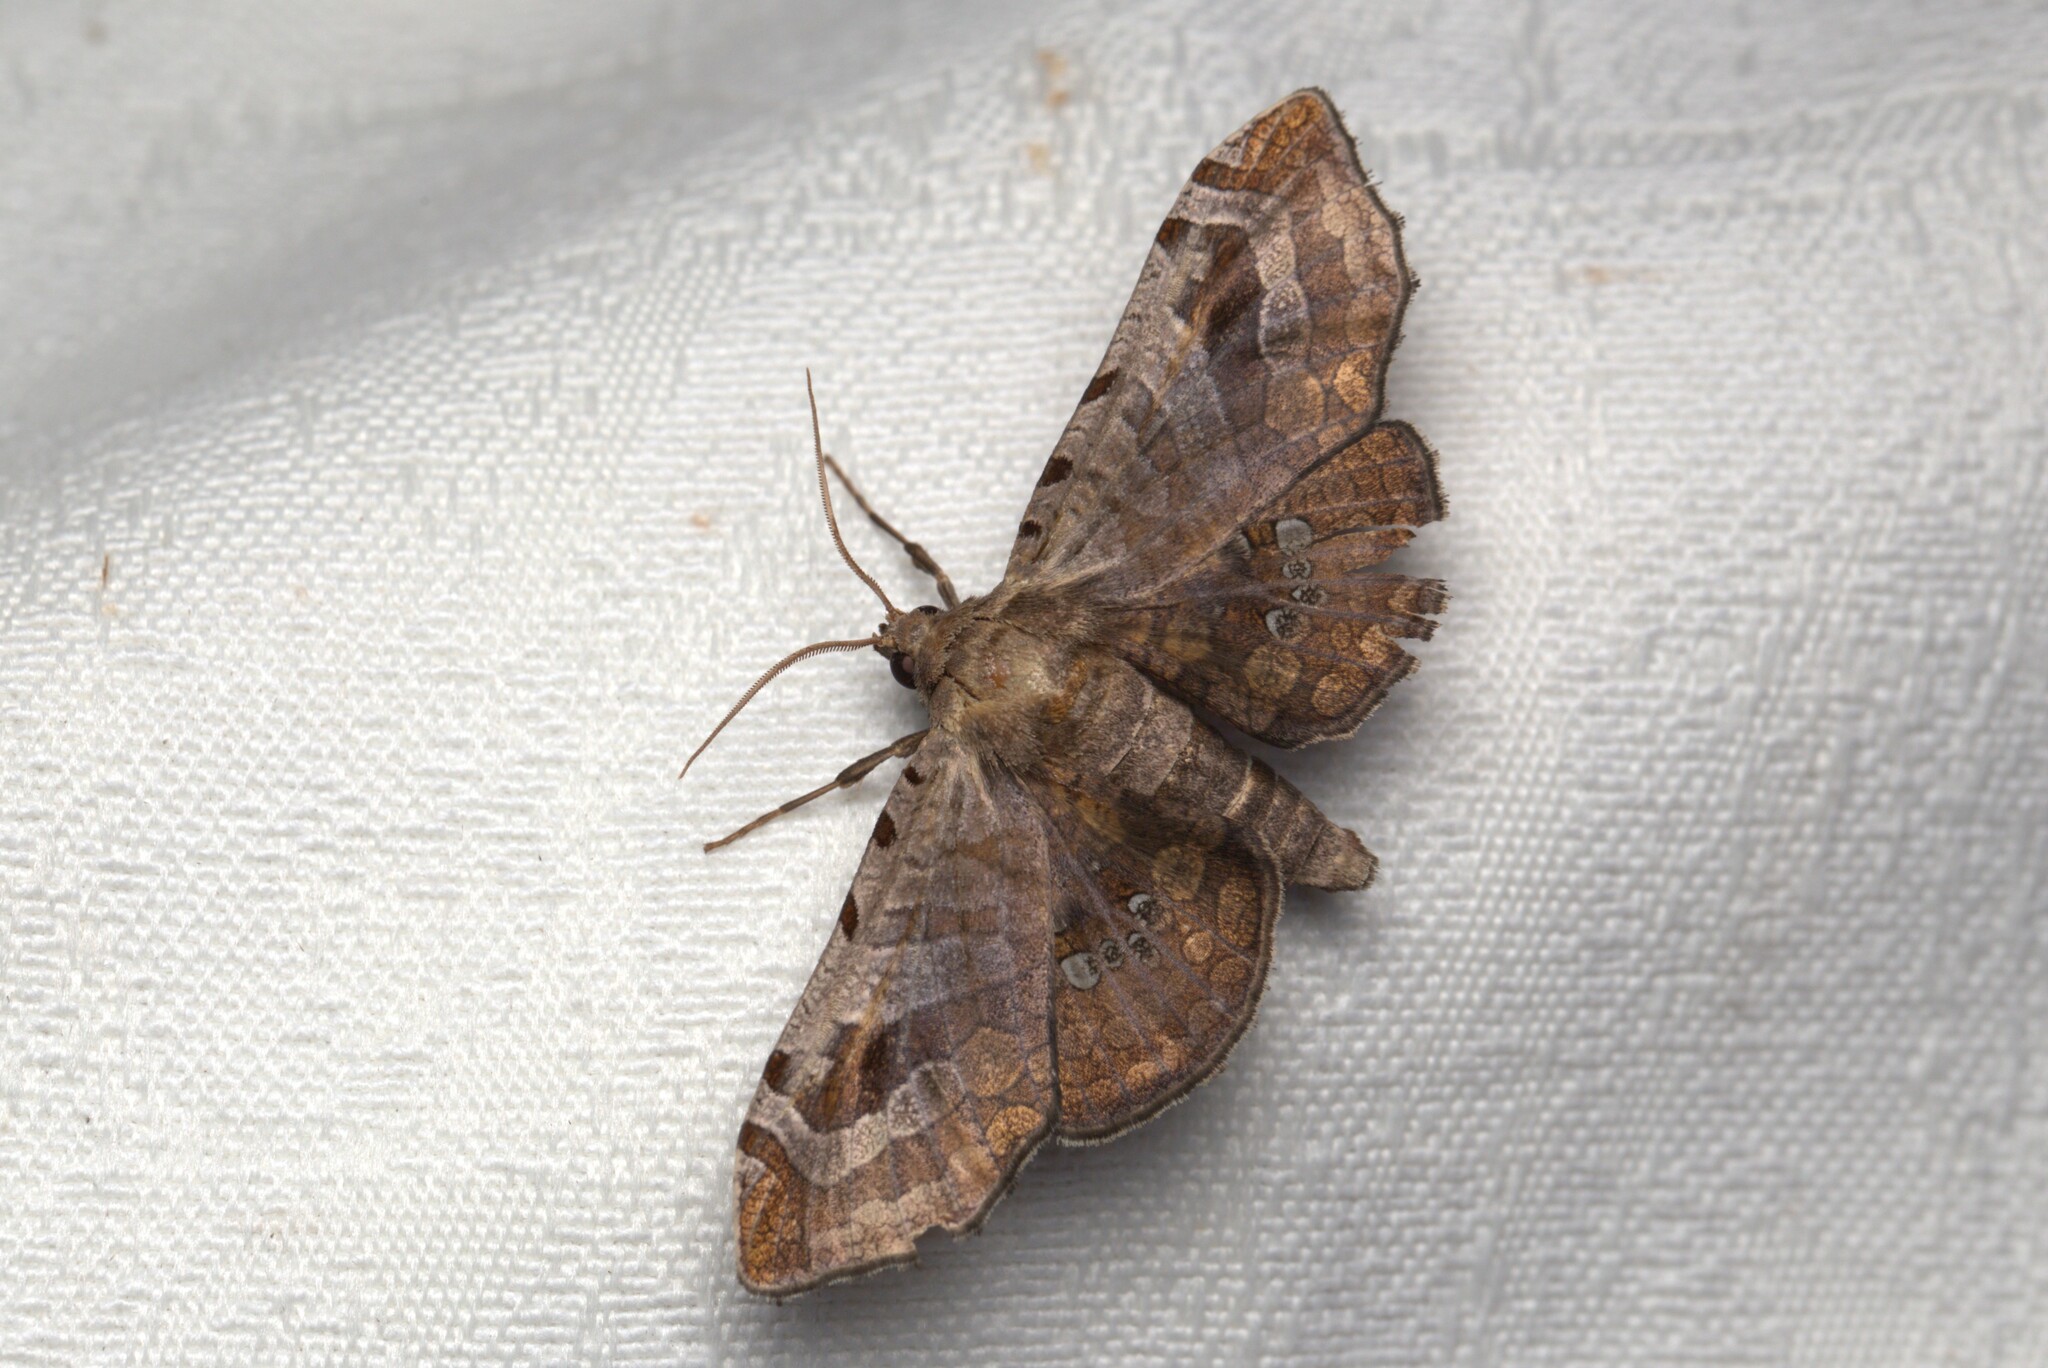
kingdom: Animalia
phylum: Arthropoda
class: Insecta
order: Lepidoptera
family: Thyrididae
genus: Oxycophina
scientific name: Oxycophina theorina
